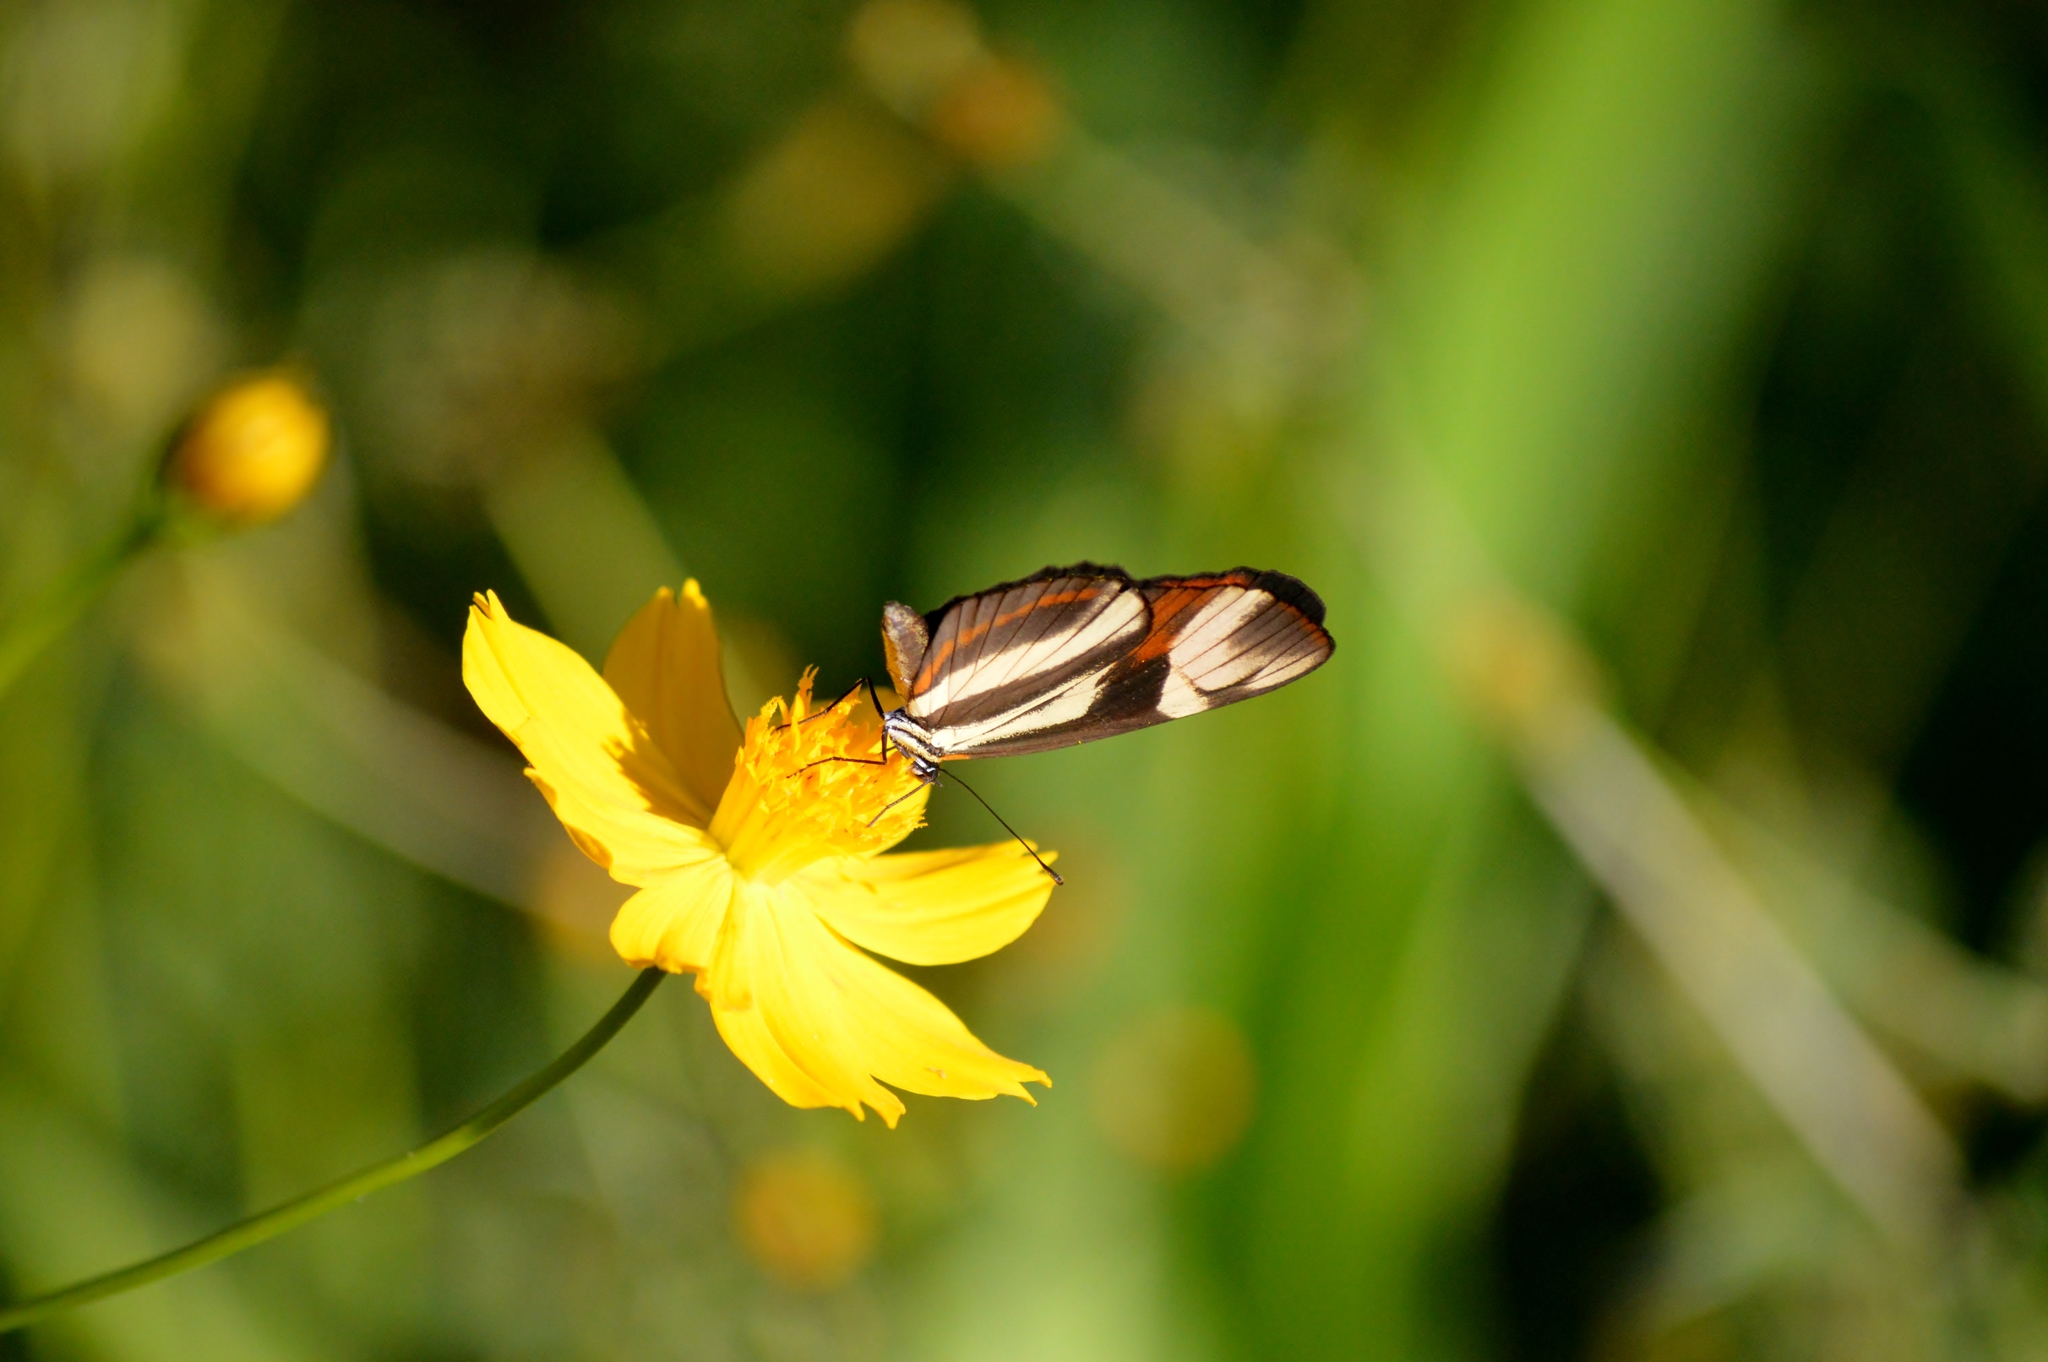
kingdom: Animalia
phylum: Arthropoda
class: Insecta
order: Lepidoptera
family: Nymphalidae
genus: Eresia
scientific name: Eresia lansdorfi
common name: Lansdorf's crescent
